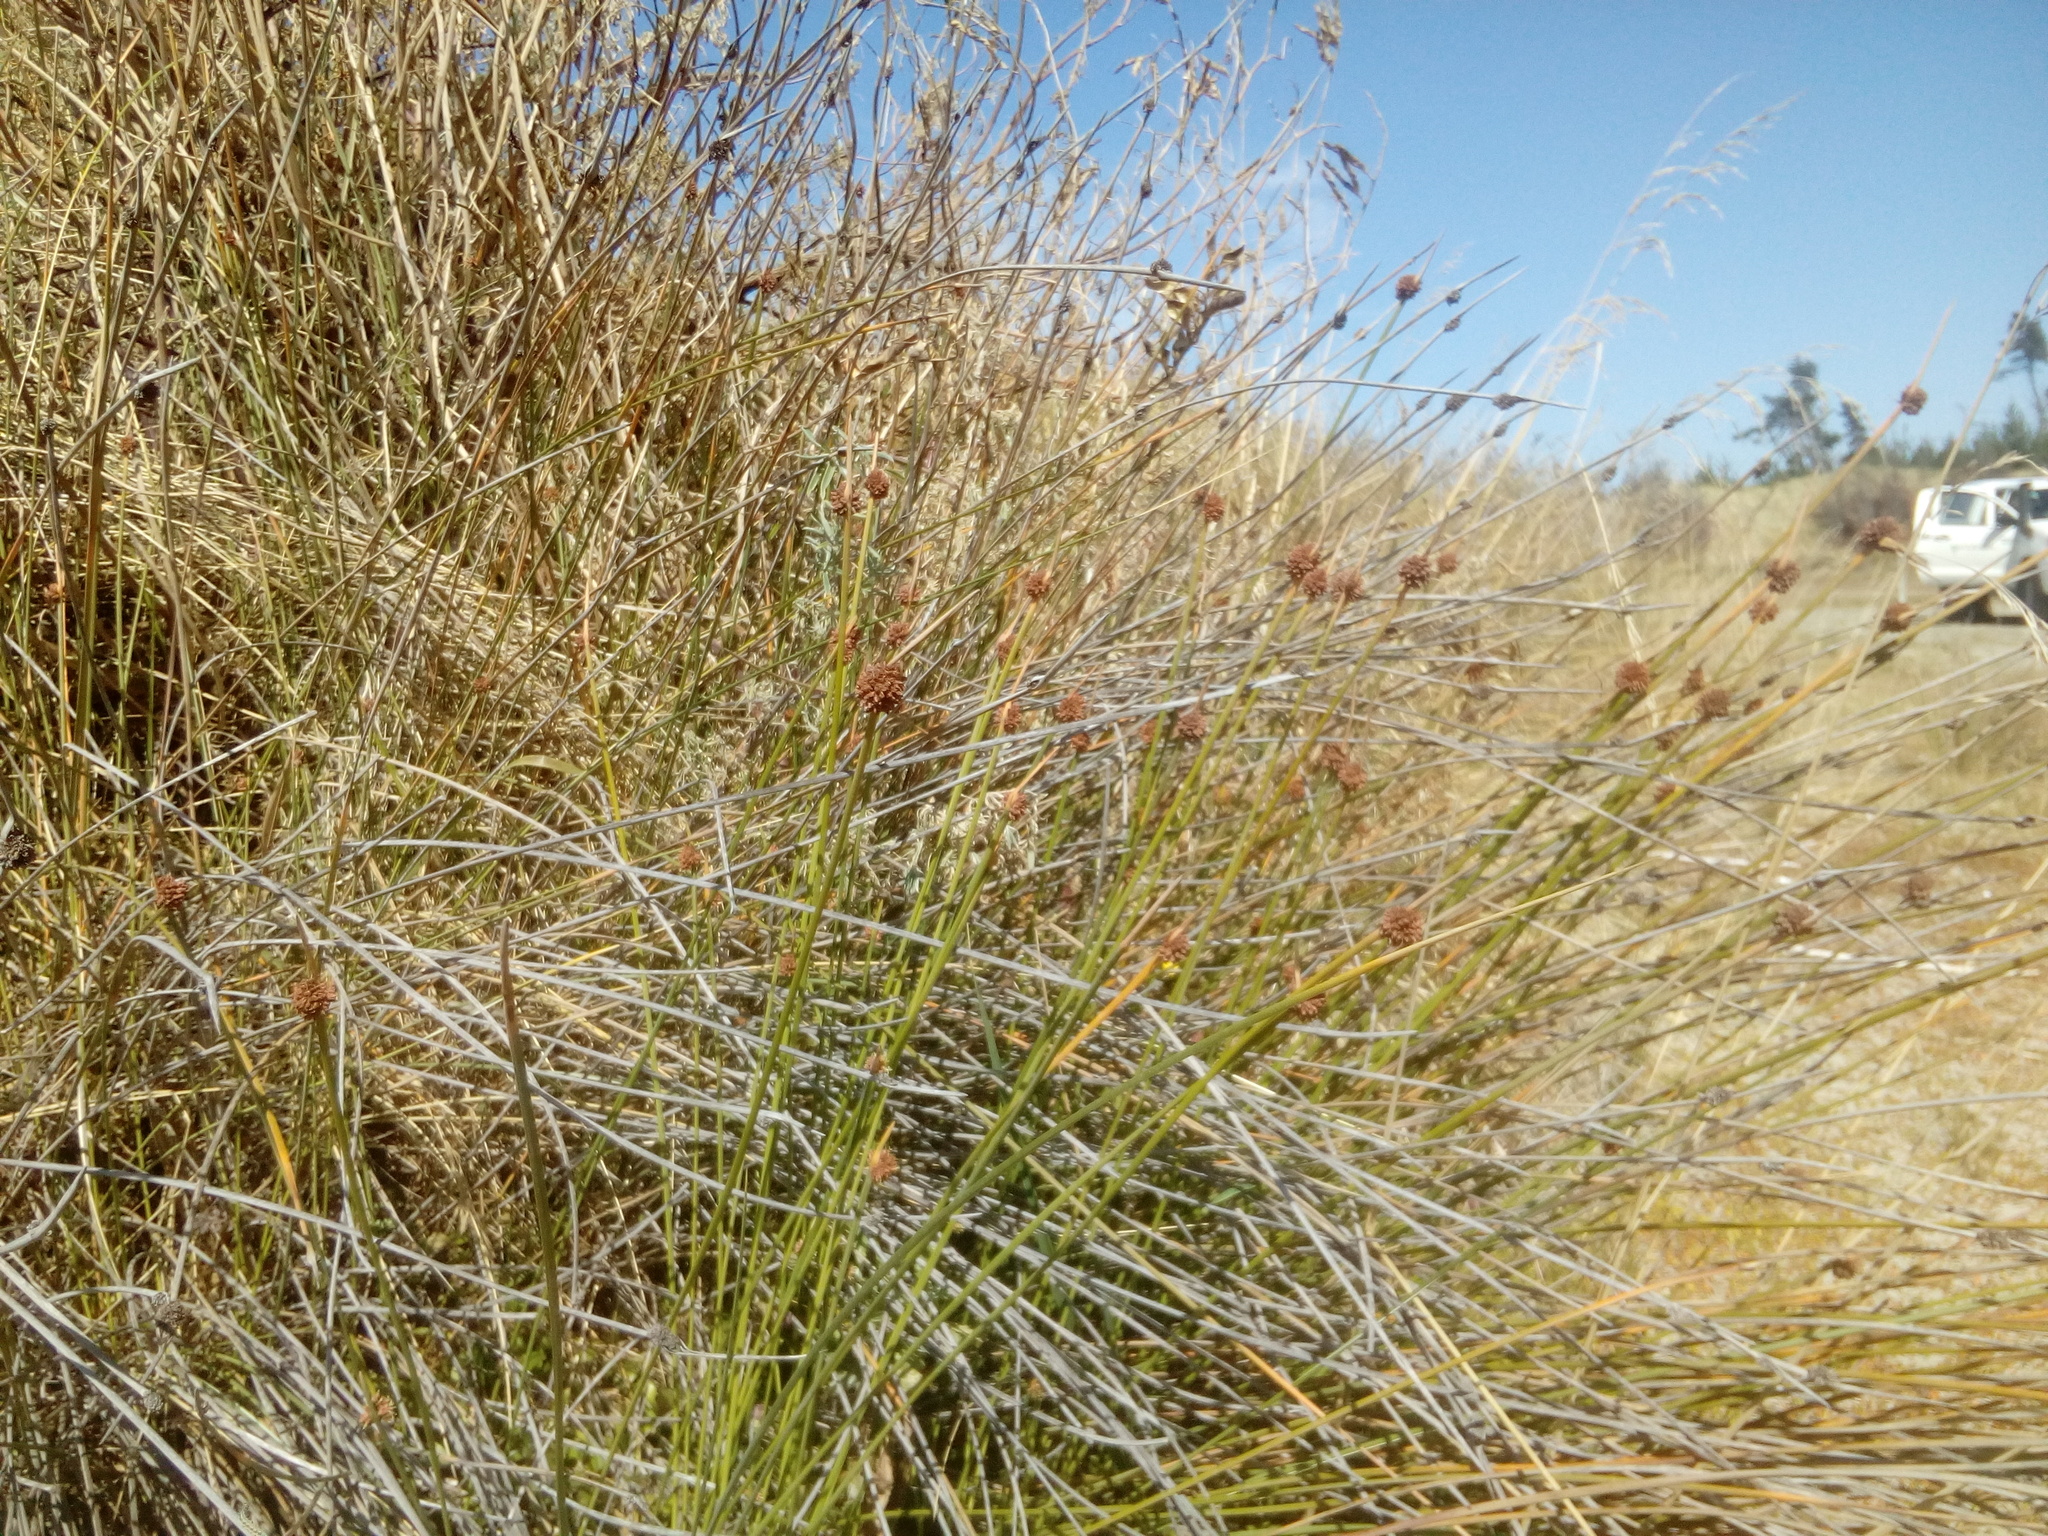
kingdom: Plantae
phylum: Tracheophyta
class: Liliopsida
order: Poales
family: Cyperaceae
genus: Ficinia
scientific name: Ficinia nodosa
